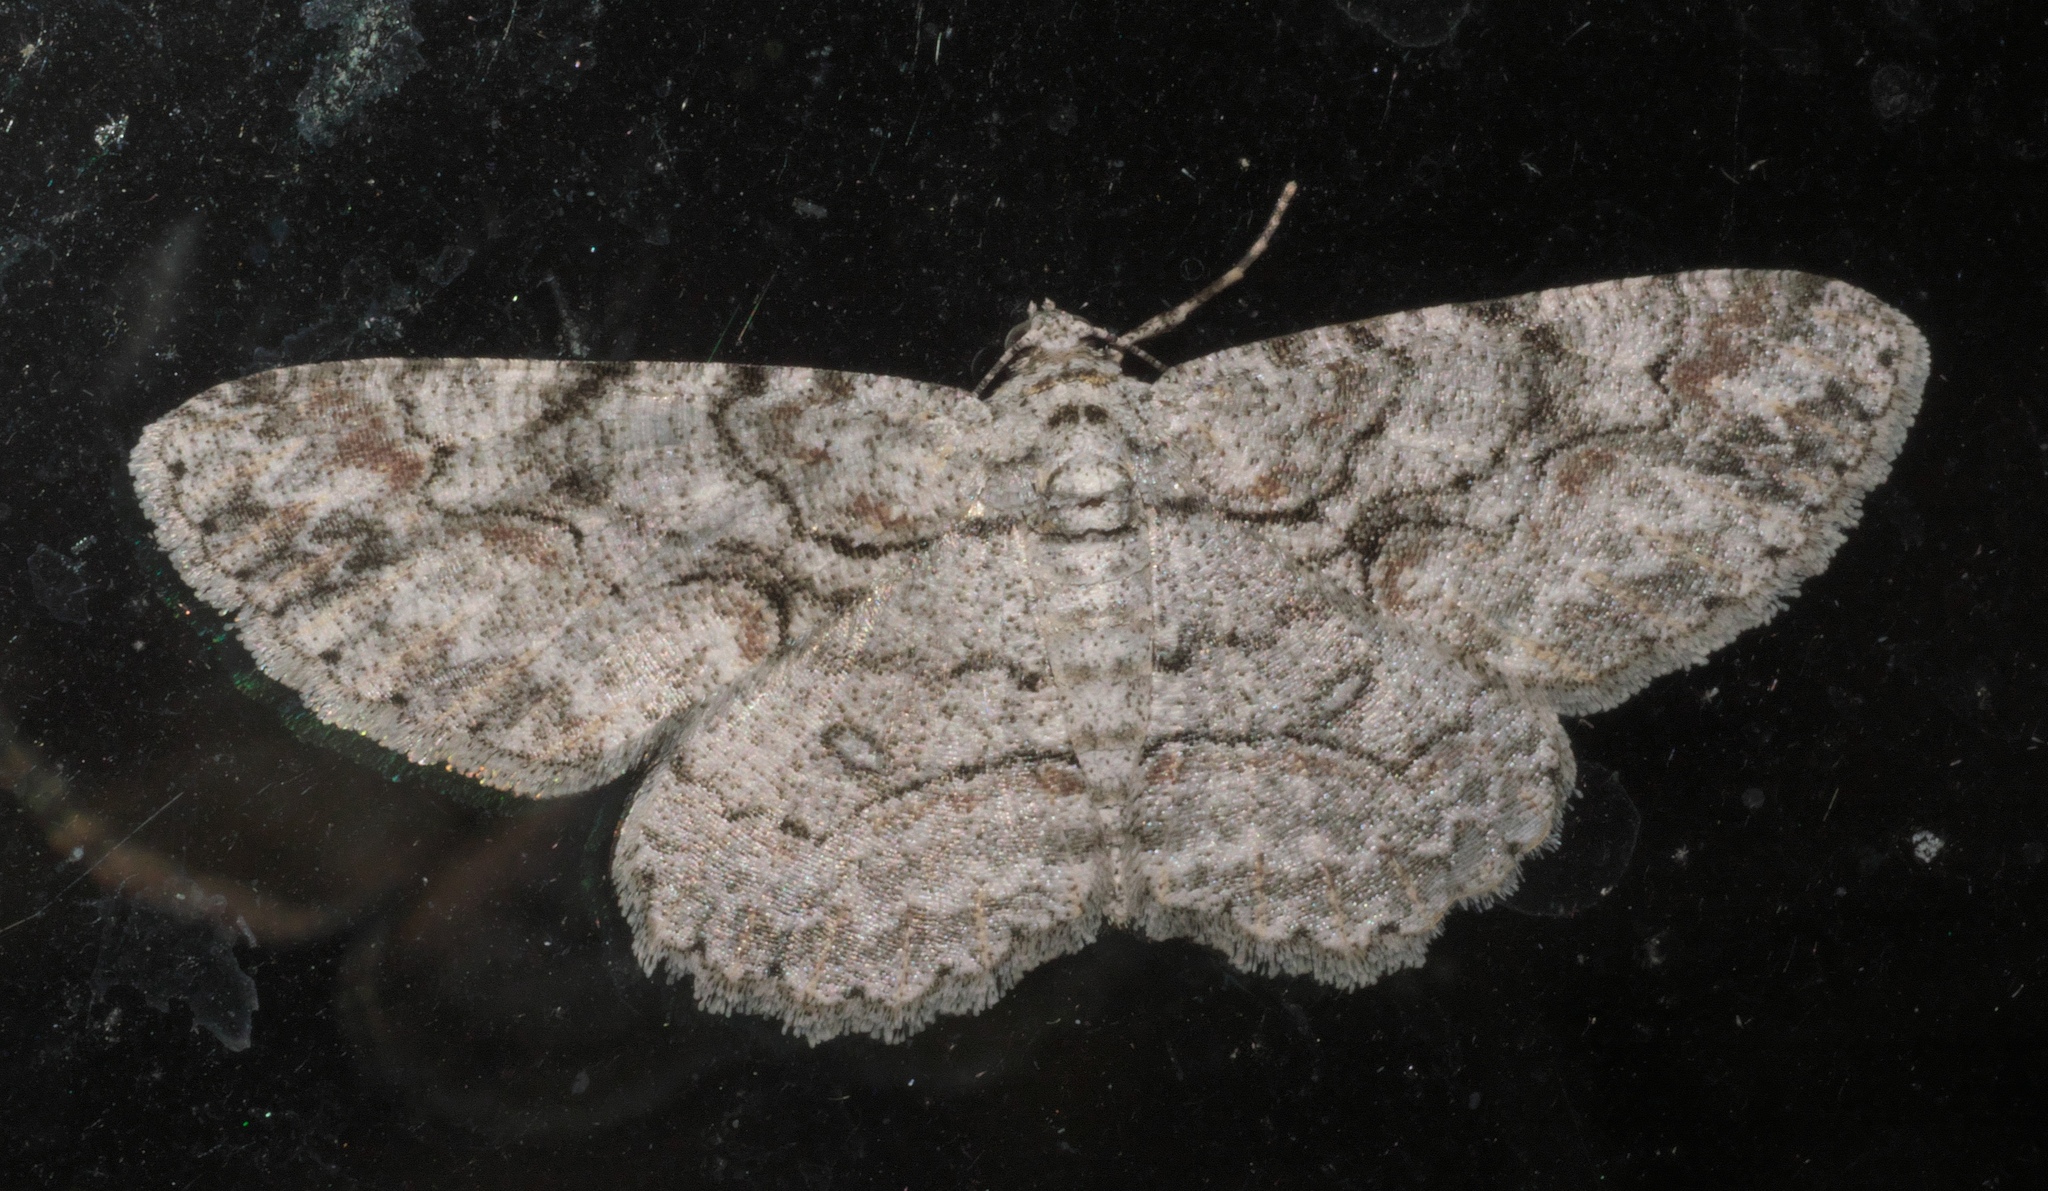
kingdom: Animalia
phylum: Arthropoda
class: Insecta
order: Lepidoptera
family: Geometridae
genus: Iridopsis
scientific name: Iridopsis defectaria
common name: Brown-shaded gray
